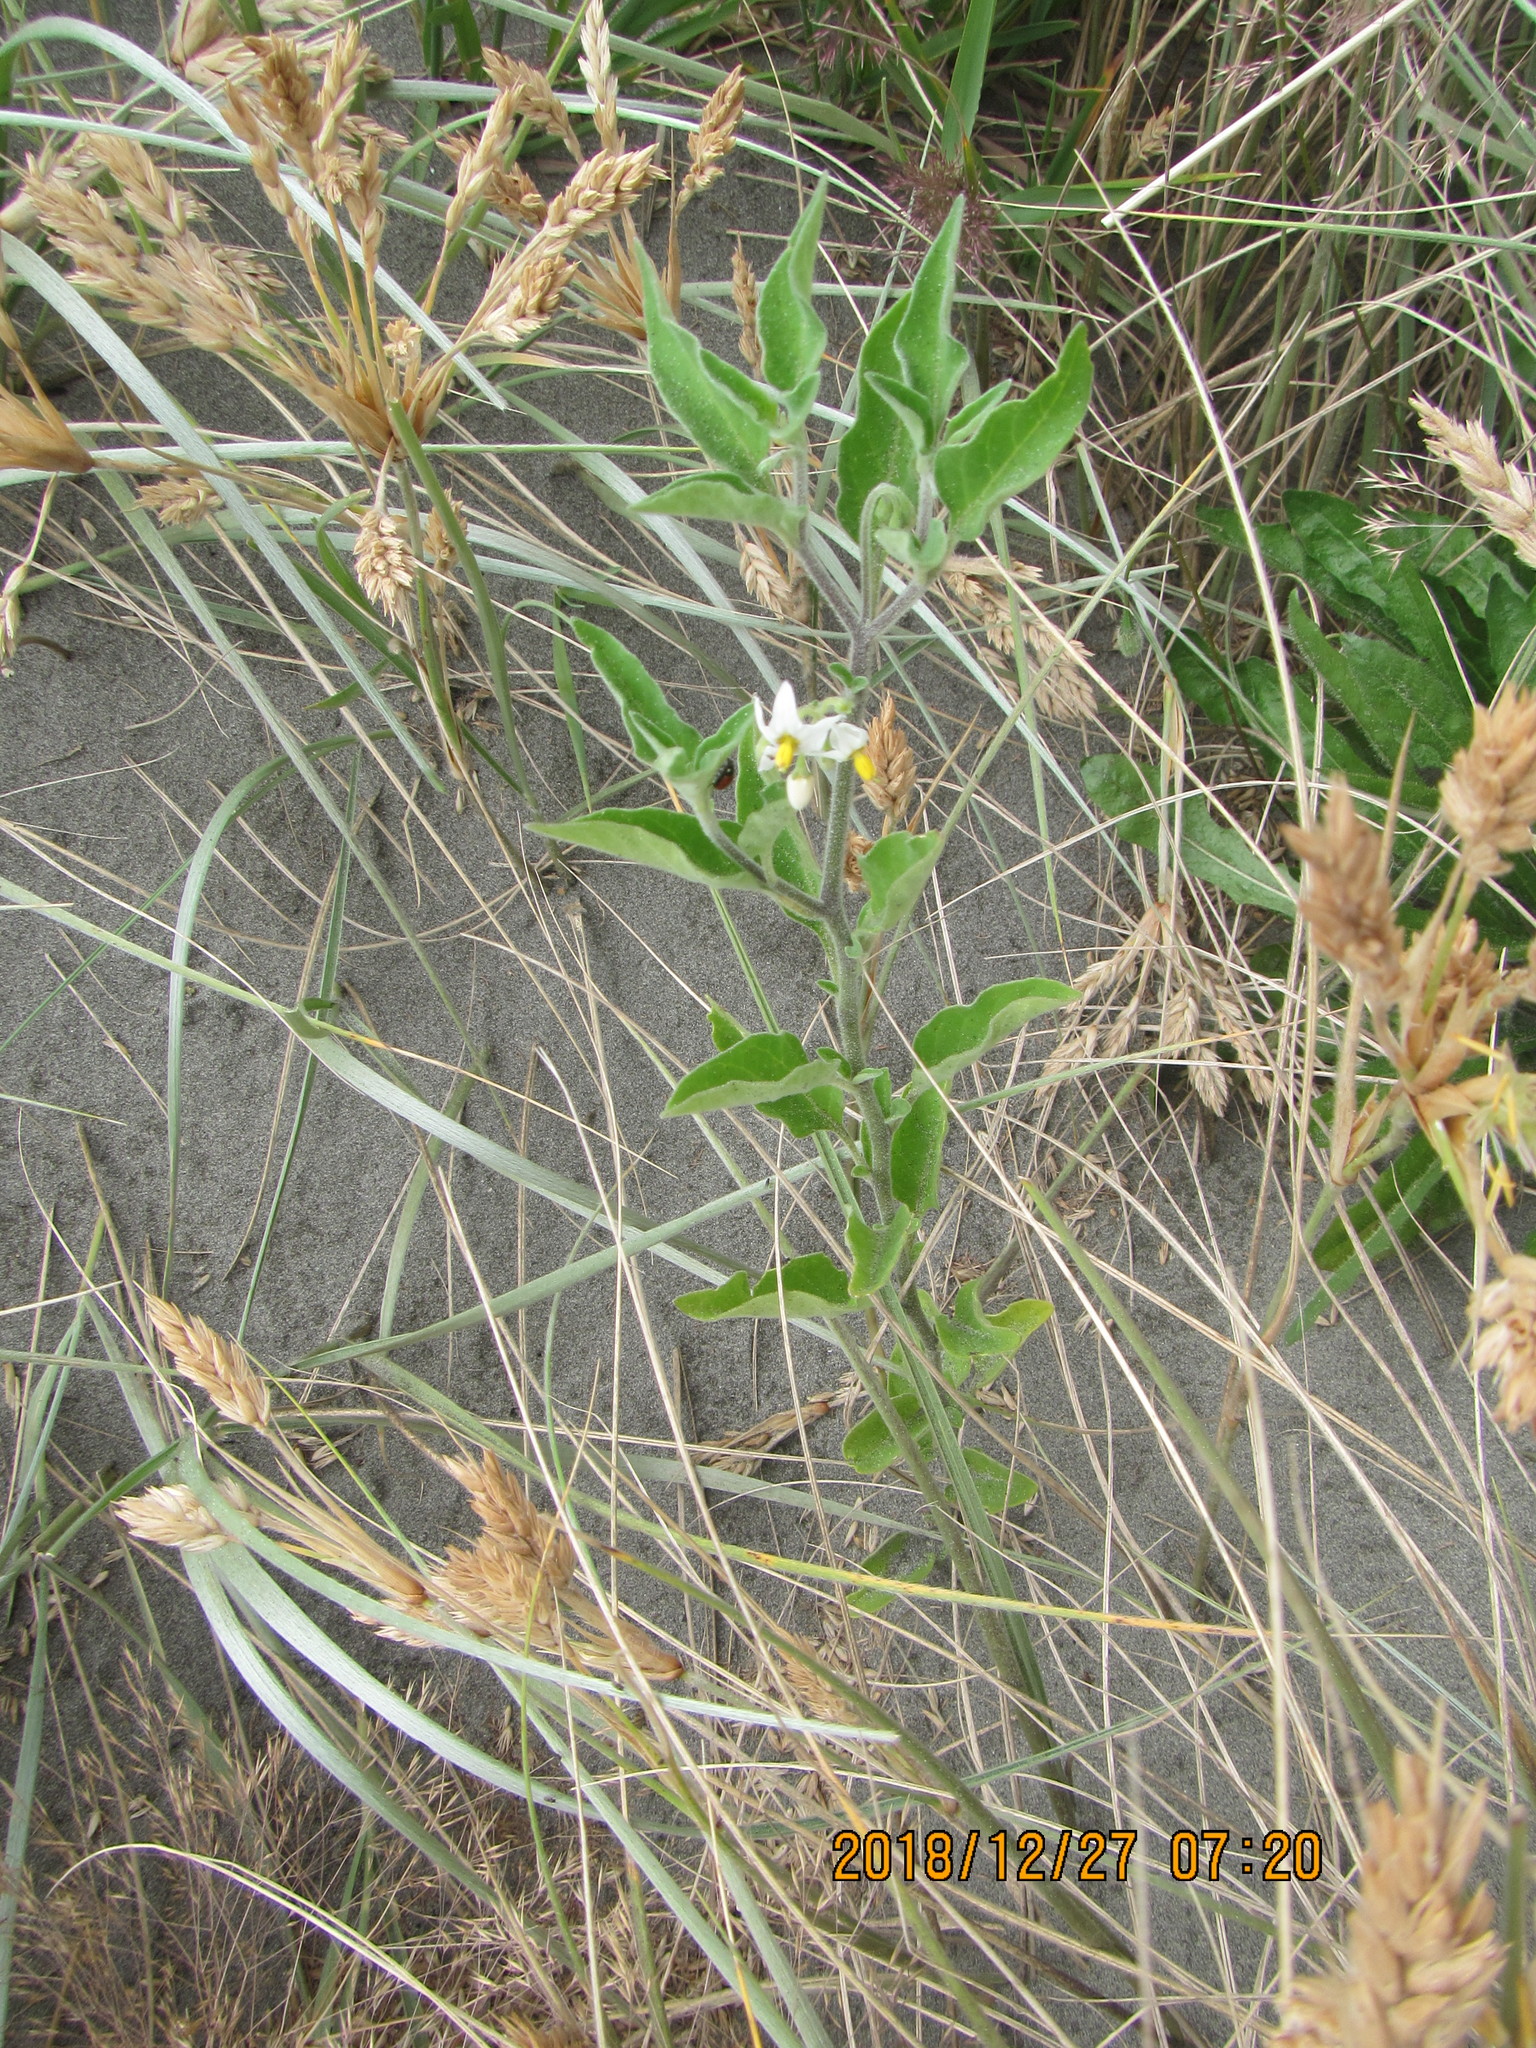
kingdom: Plantae
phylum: Tracheophyta
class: Magnoliopsida
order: Solanales
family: Solanaceae
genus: Solanum
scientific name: Solanum chenopodioides
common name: Tall nightshade
